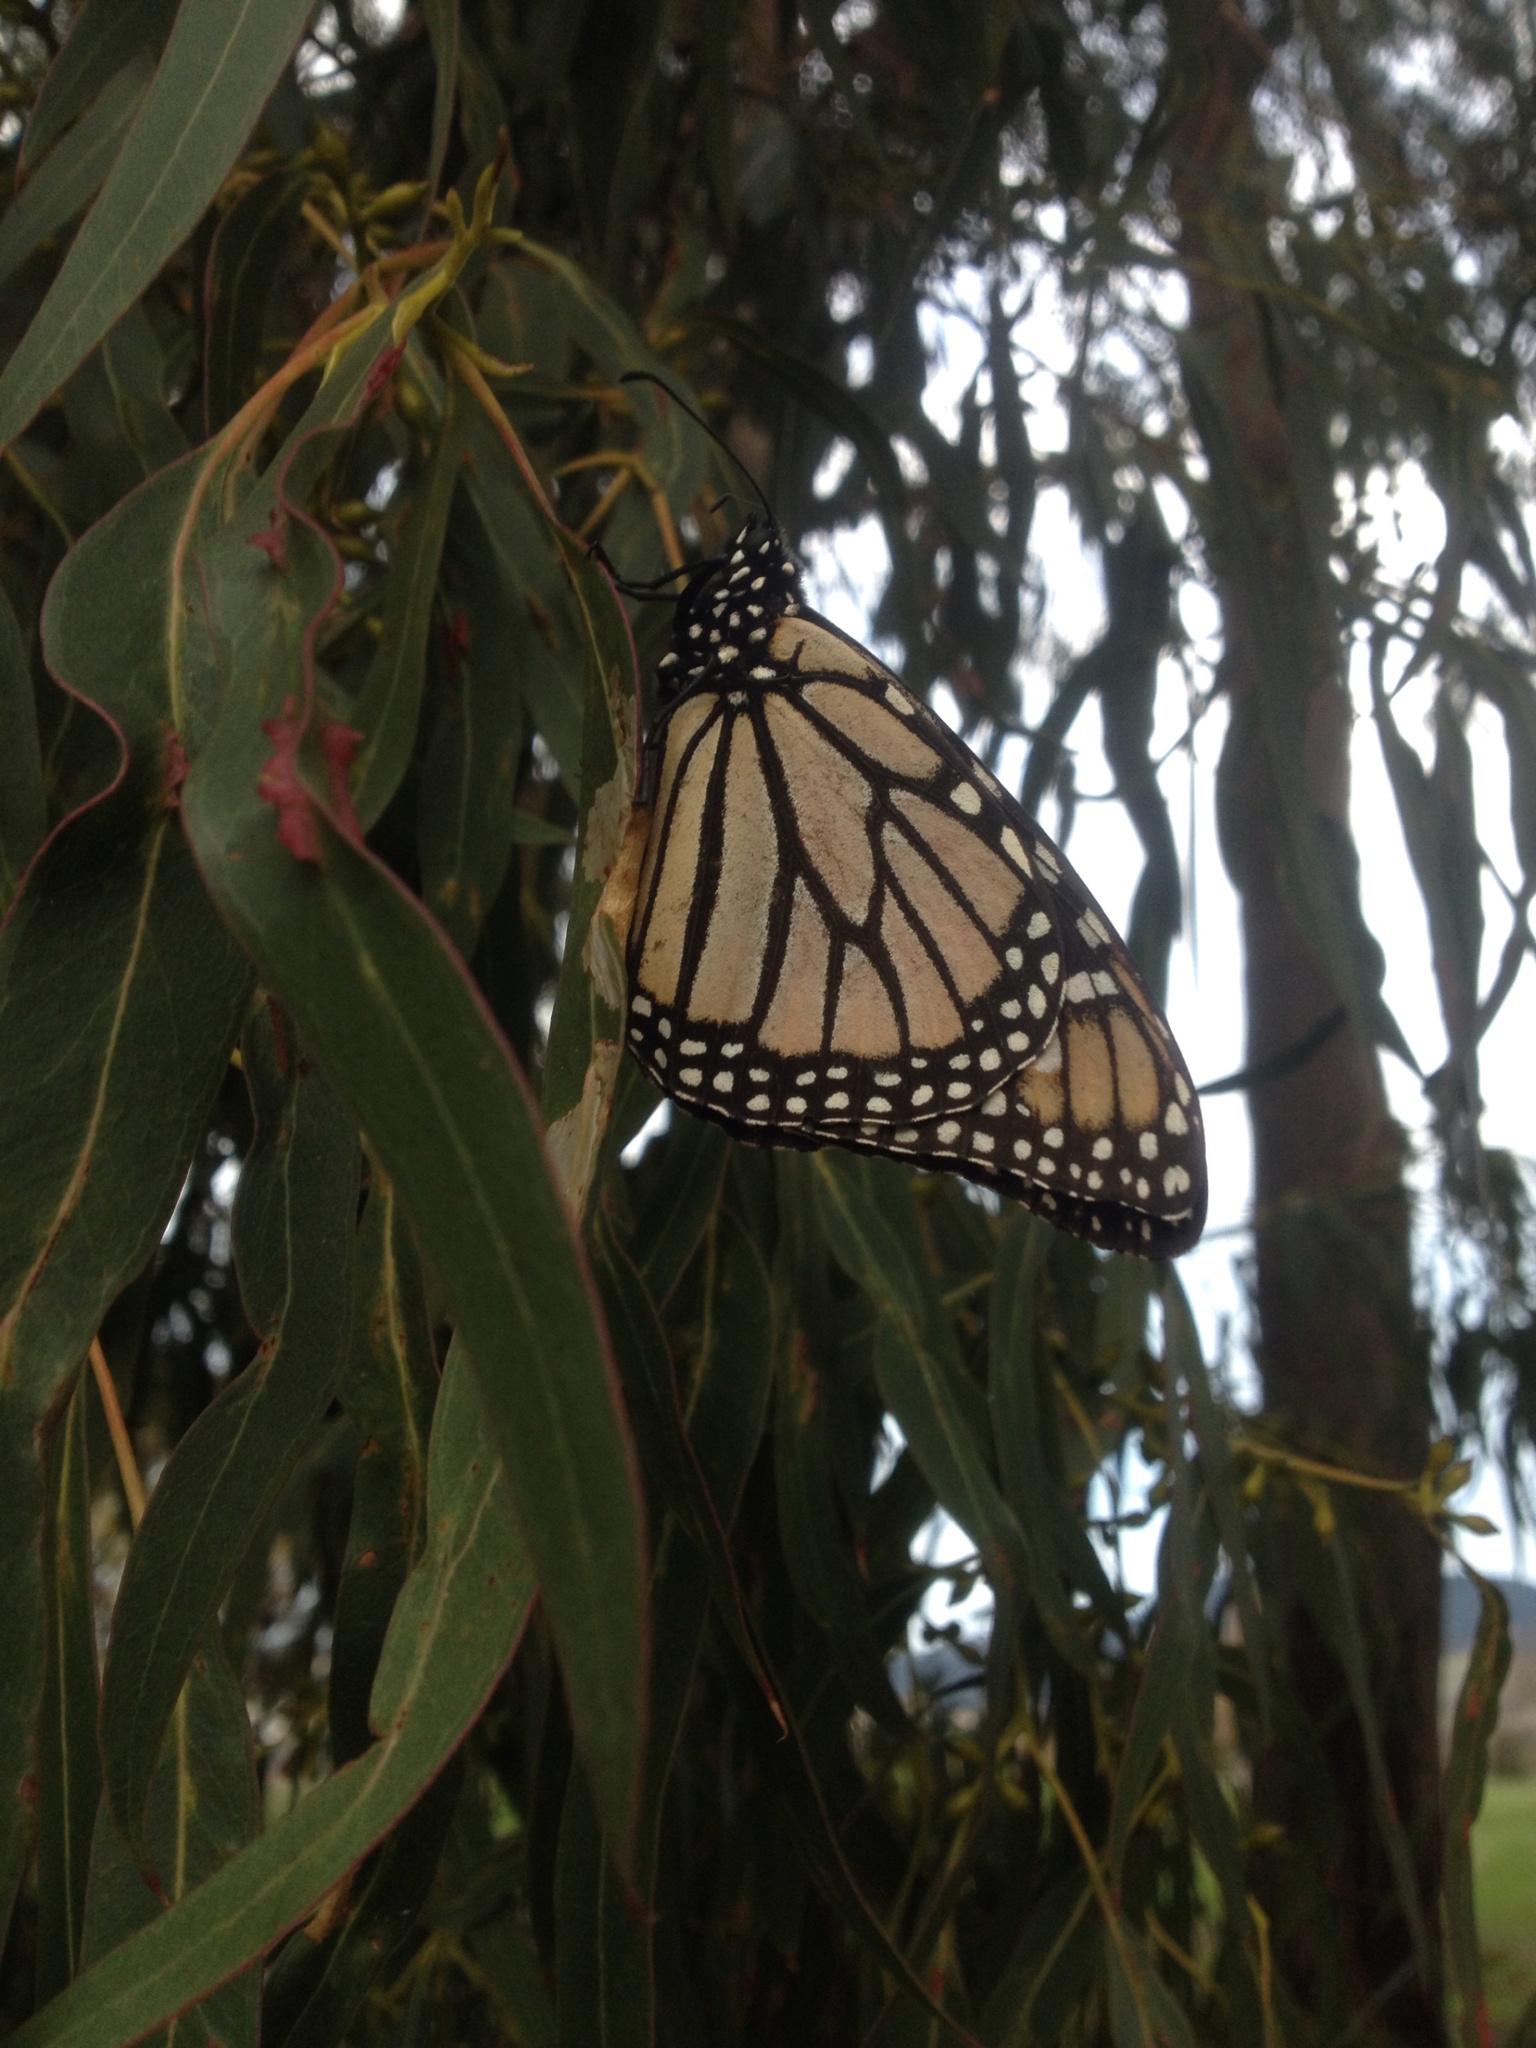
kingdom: Animalia
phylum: Arthropoda
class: Insecta
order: Hymenoptera
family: Pteromalidae
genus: Nambouria
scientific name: Nambouria xanthops
